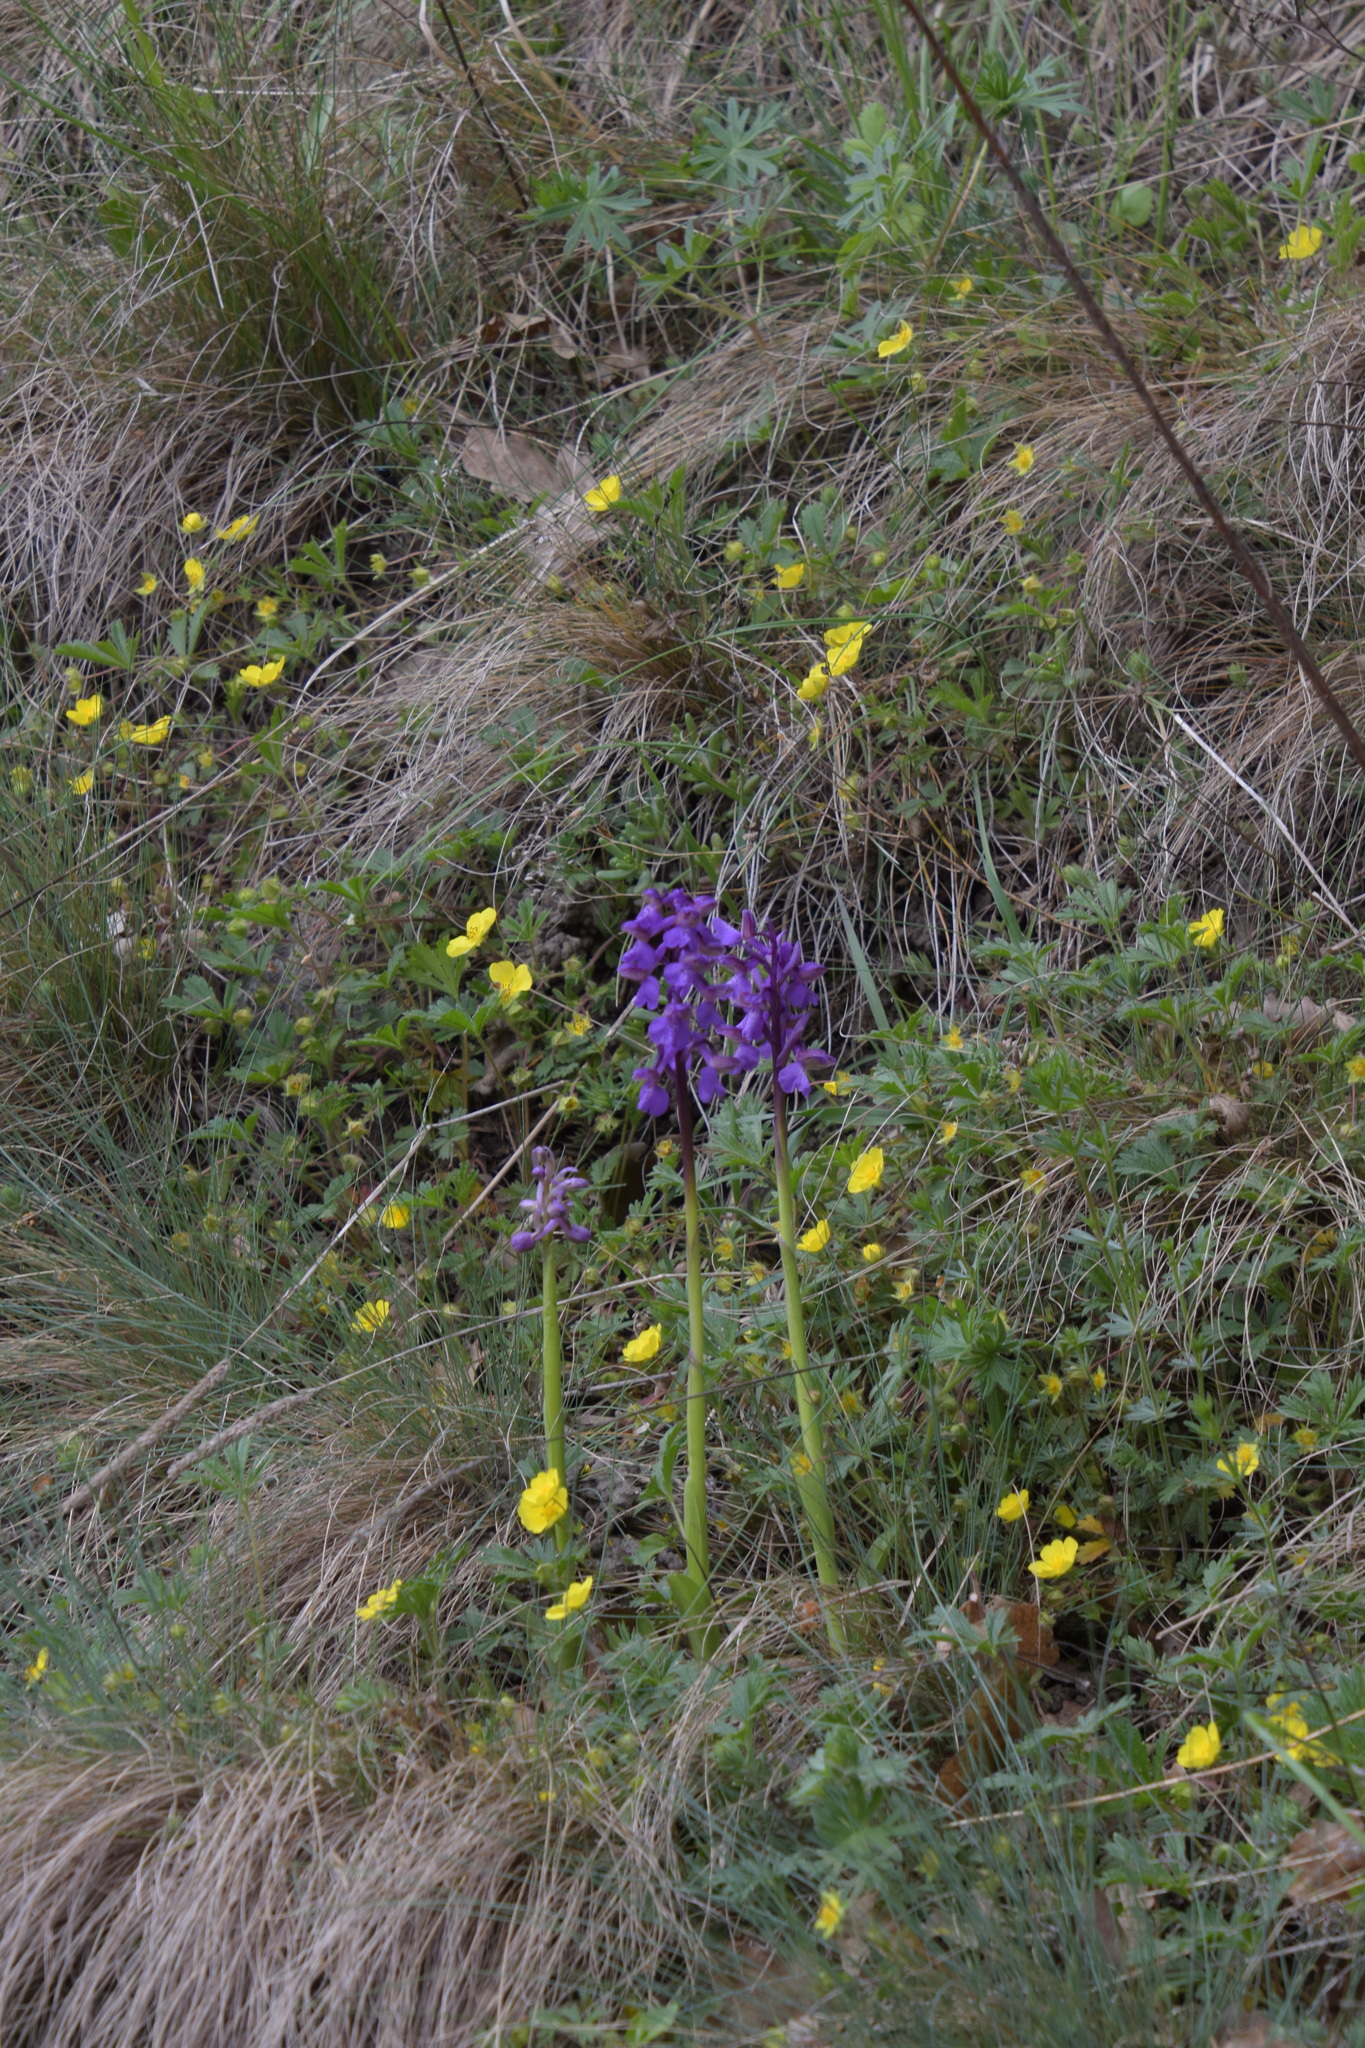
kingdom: Plantae
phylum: Tracheophyta
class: Liliopsida
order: Asparagales
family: Orchidaceae
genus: Anacamptis
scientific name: Anacamptis morio
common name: Green-winged orchid
